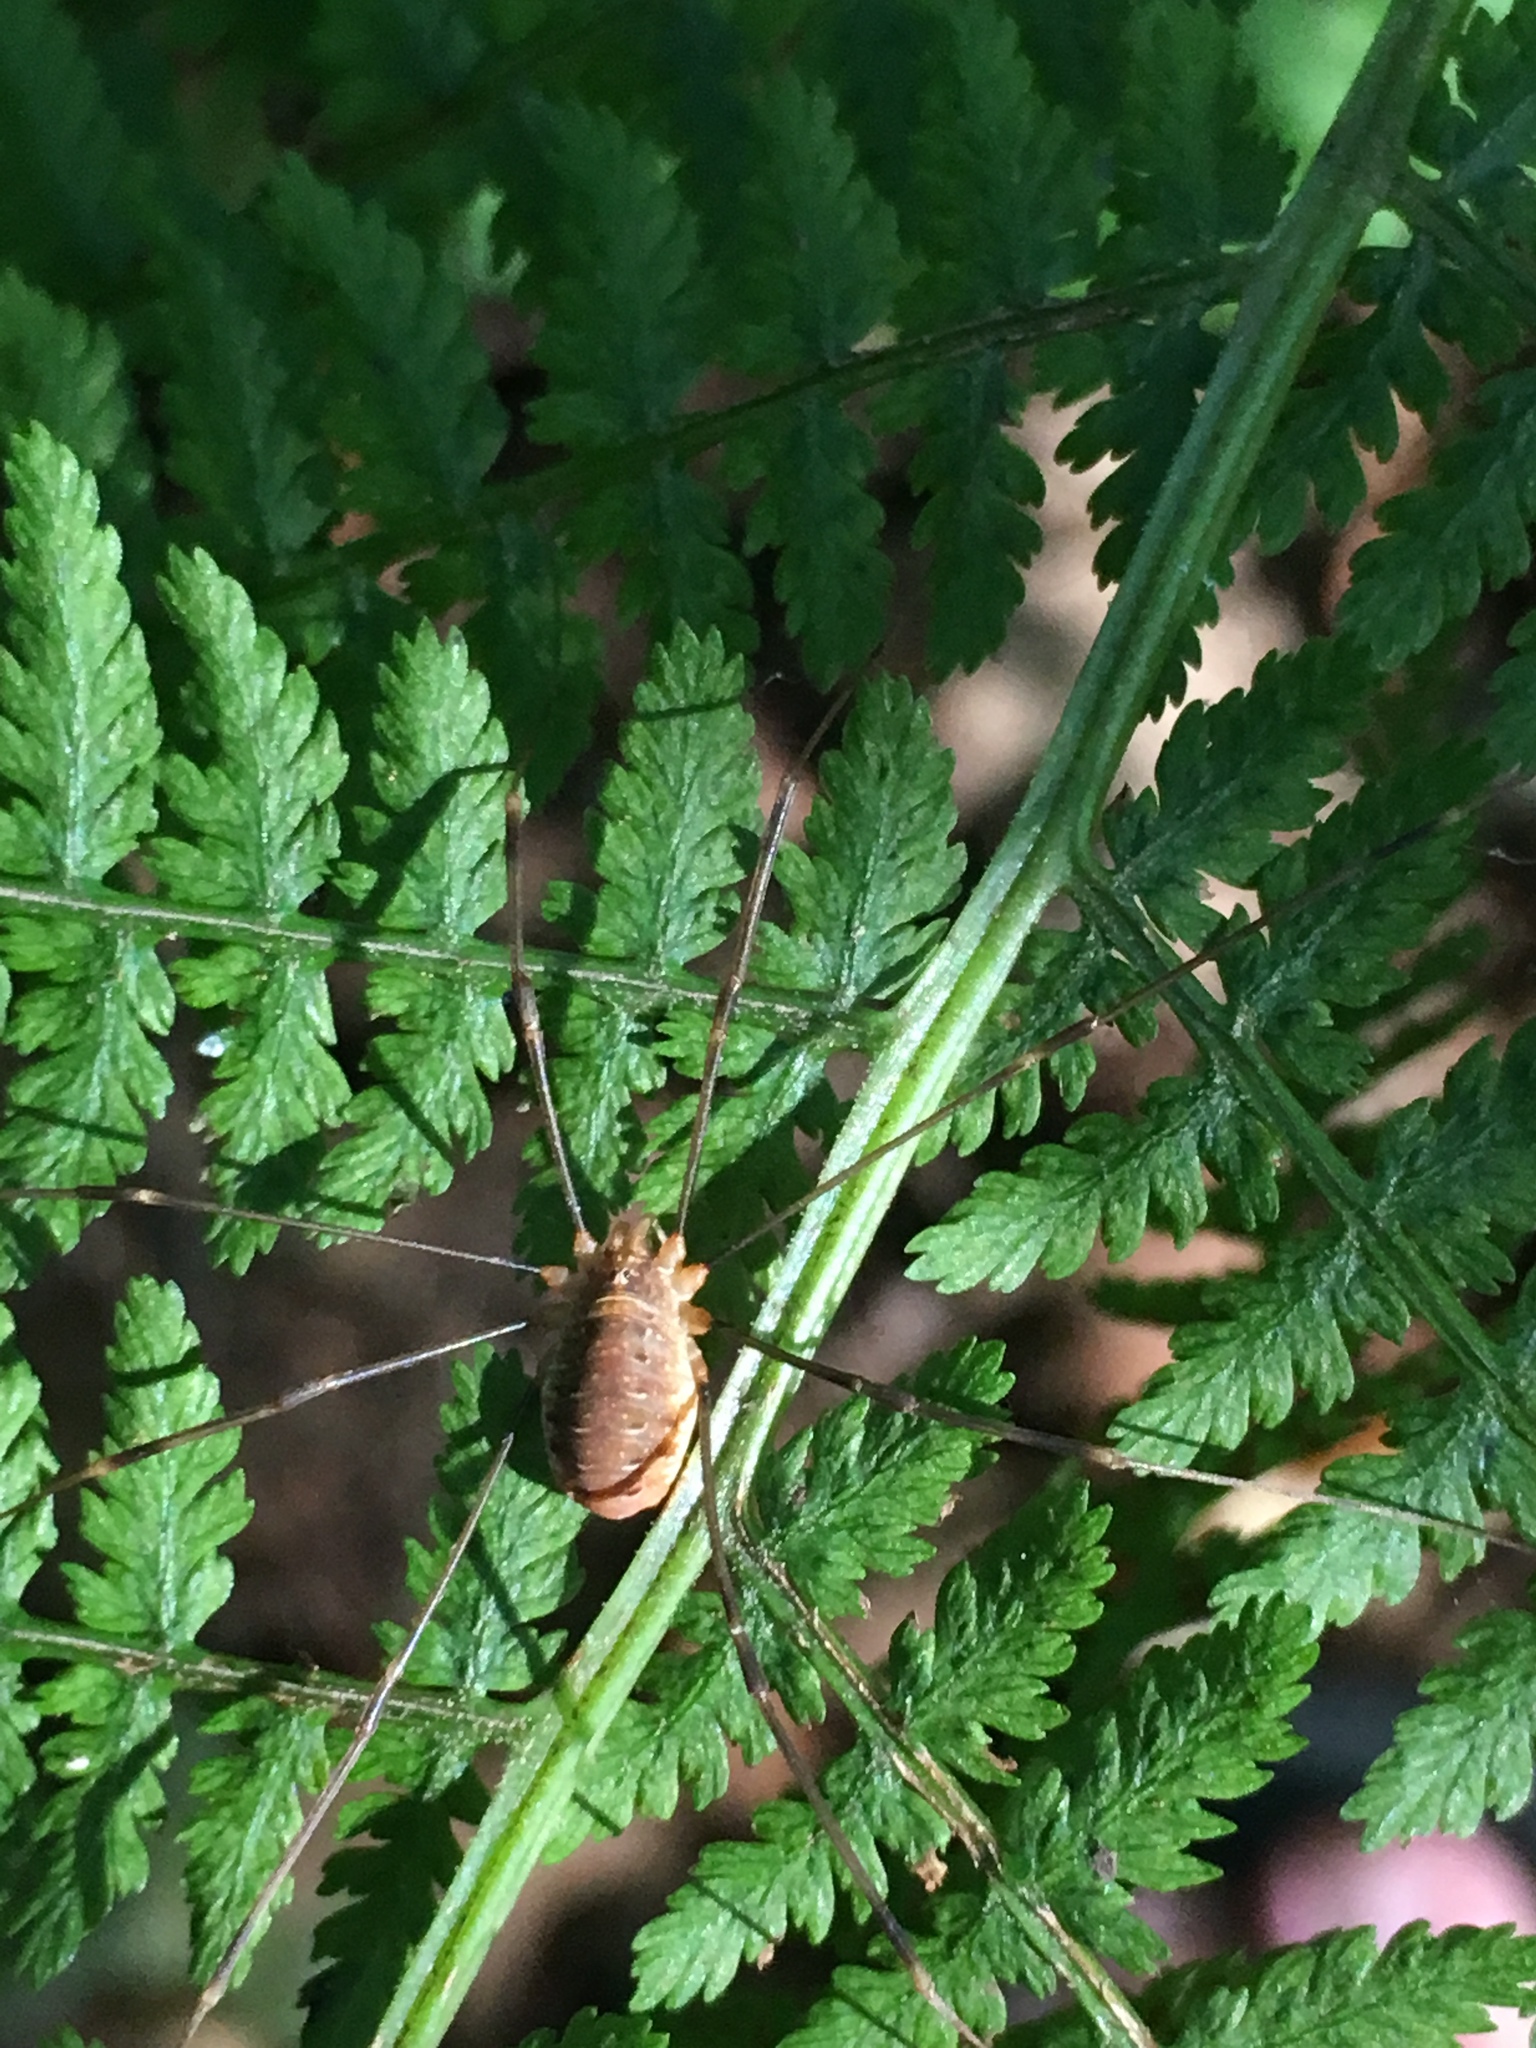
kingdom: Animalia
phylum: Arthropoda
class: Arachnida
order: Opiliones
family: Phalangiidae
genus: Opilio
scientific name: Opilio canestrinii
